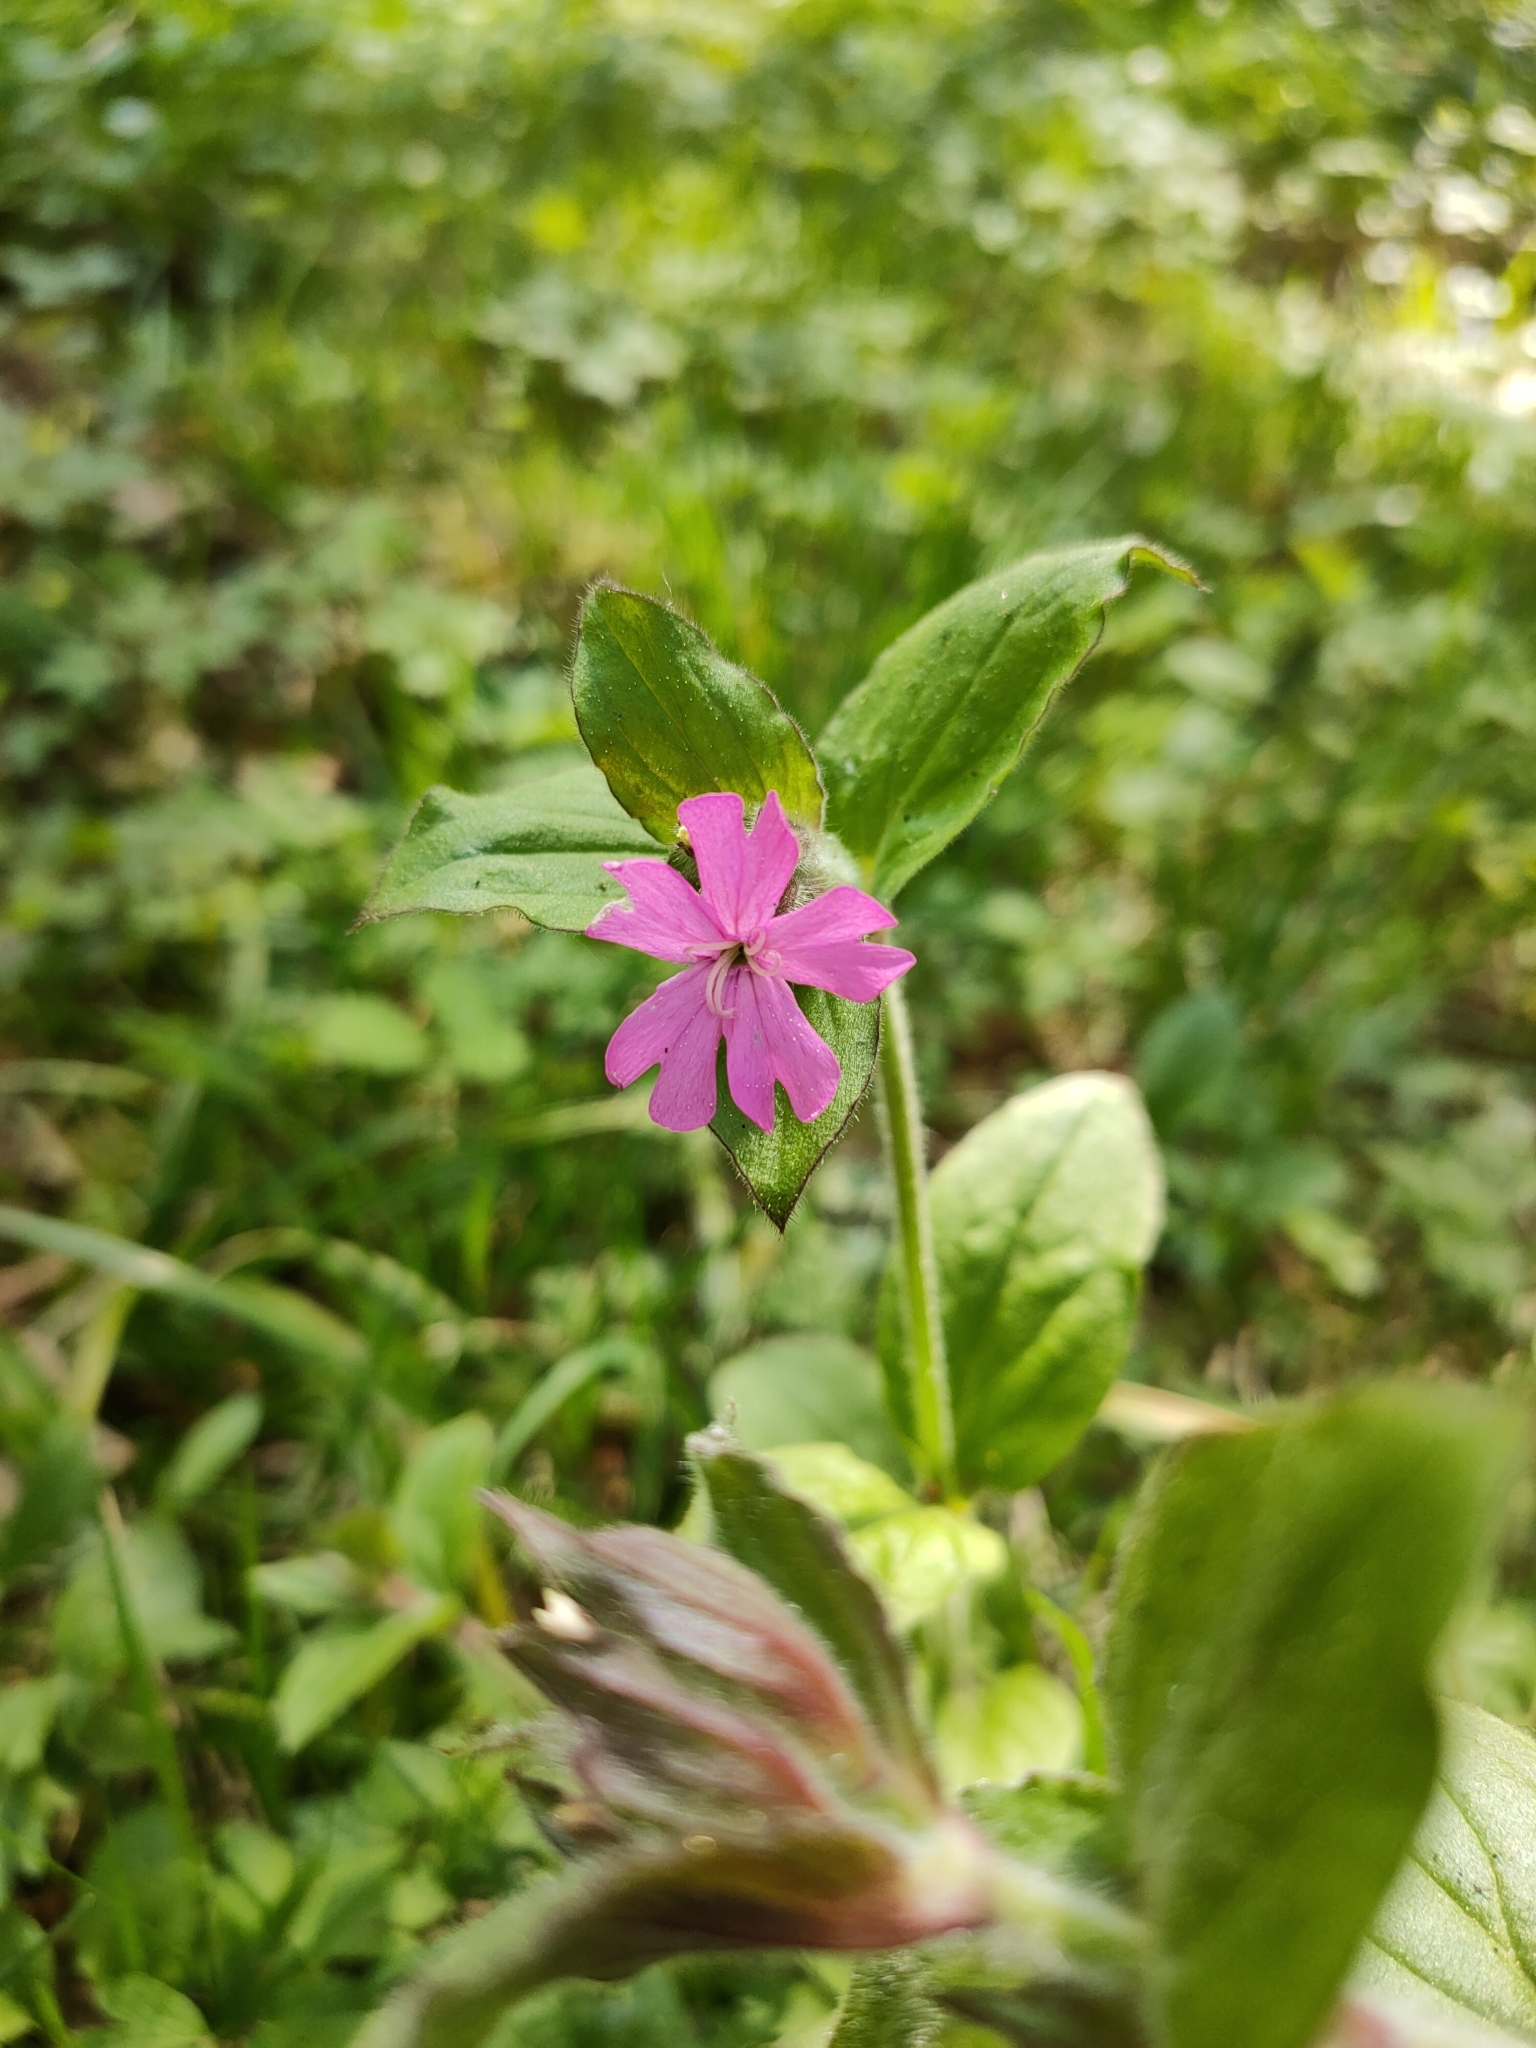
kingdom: Plantae
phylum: Tracheophyta
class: Magnoliopsida
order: Caryophyllales
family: Caryophyllaceae
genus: Silene
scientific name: Silene dioica
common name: Red campion
